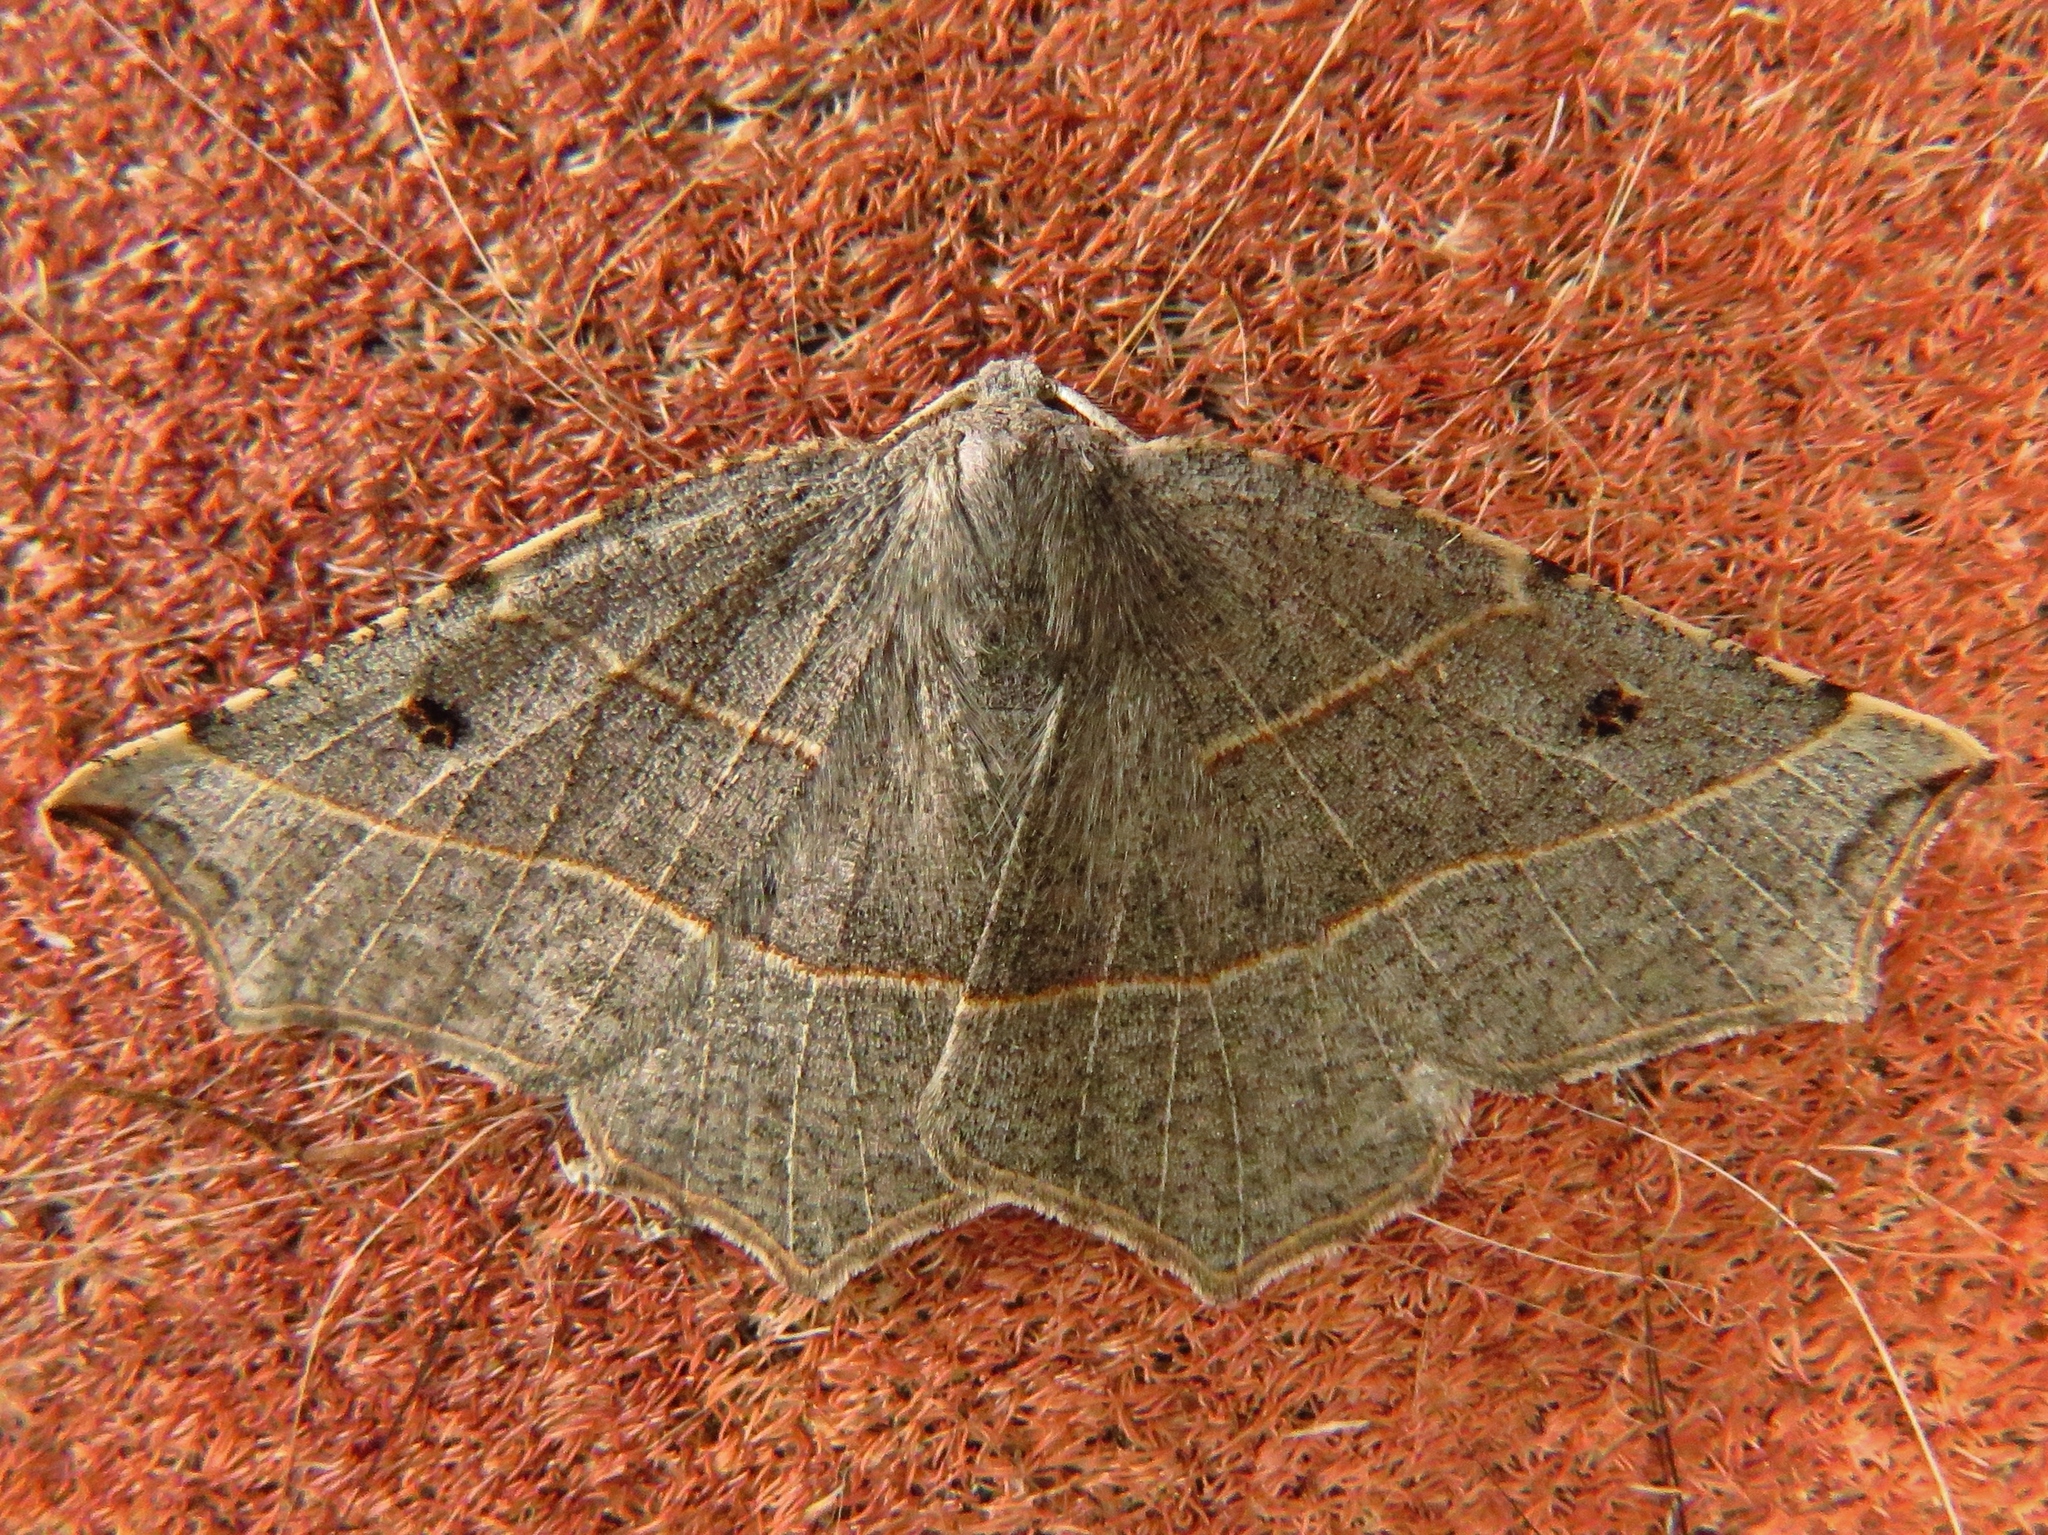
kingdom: Animalia
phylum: Arthropoda
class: Insecta
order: Lepidoptera
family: Geometridae
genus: Metanema
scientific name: Metanema inatomaria
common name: Pale metanema
